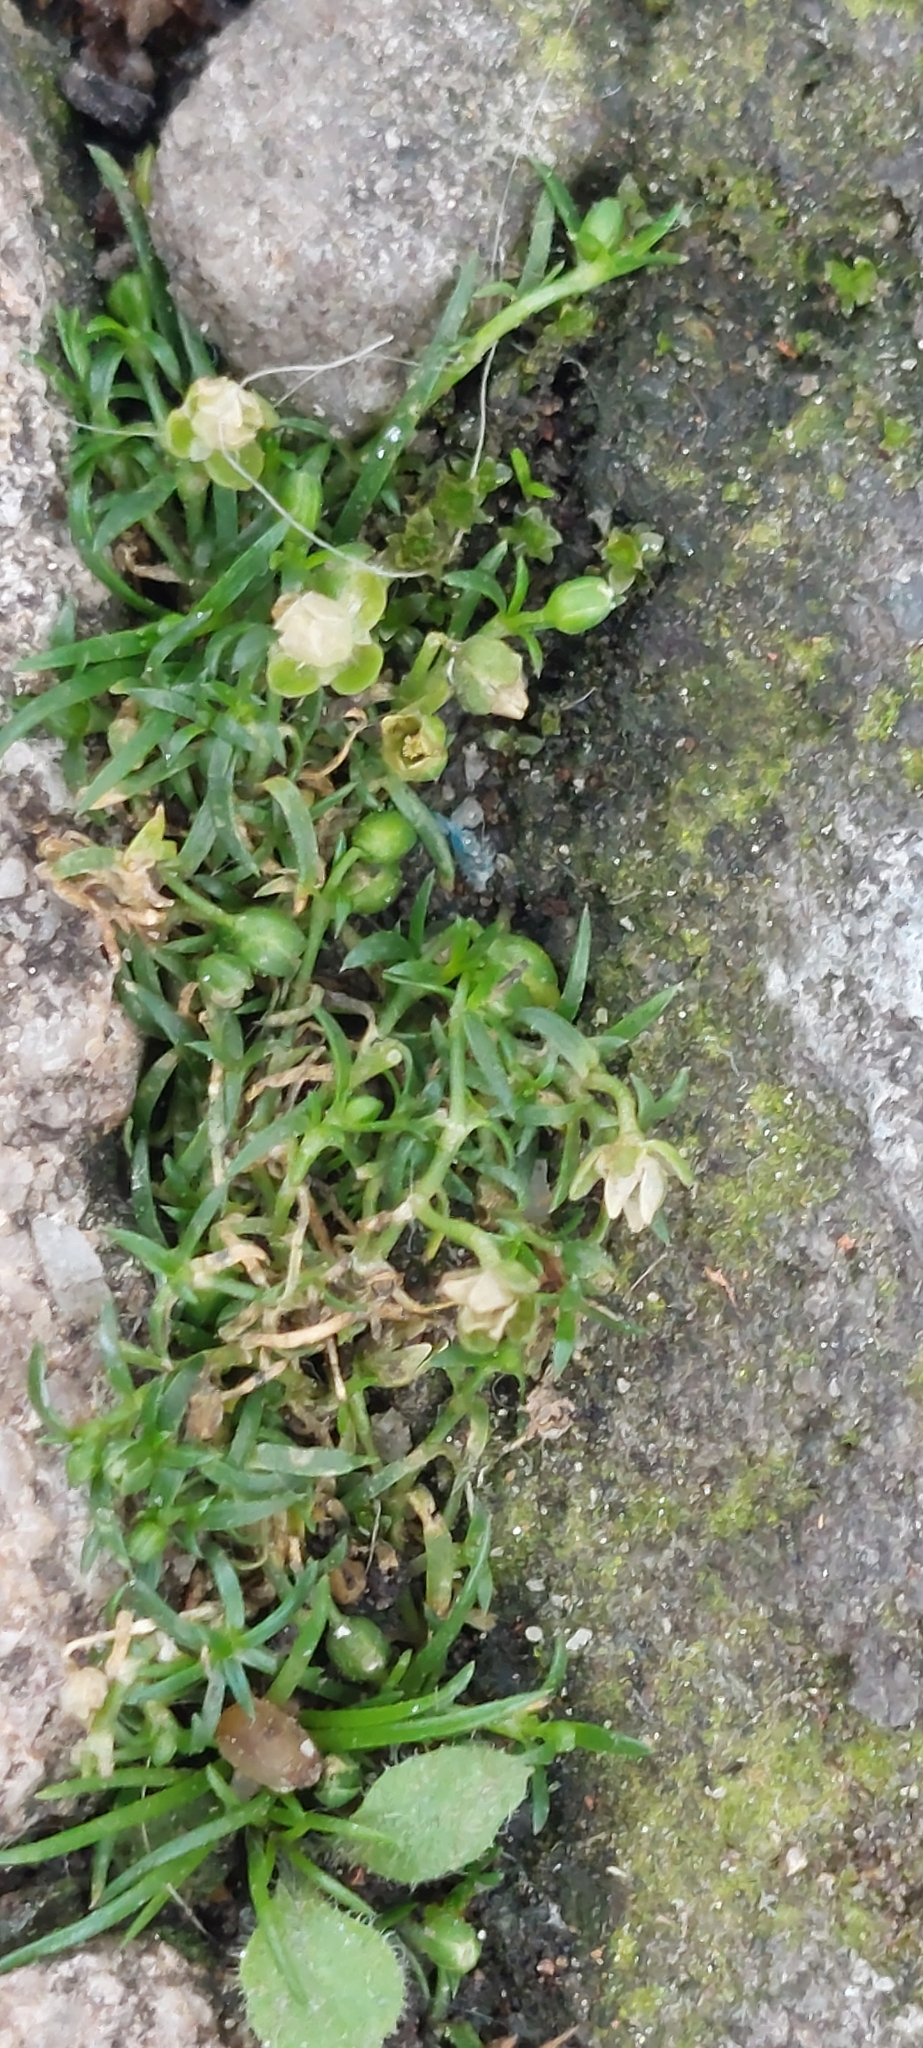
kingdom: Plantae
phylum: Tracheophyta
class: Magnoliopsida
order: Caryophyllales
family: Caryophyllaceae
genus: Sagina
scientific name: Sagina procumbens
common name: Procumbent pearlwort
